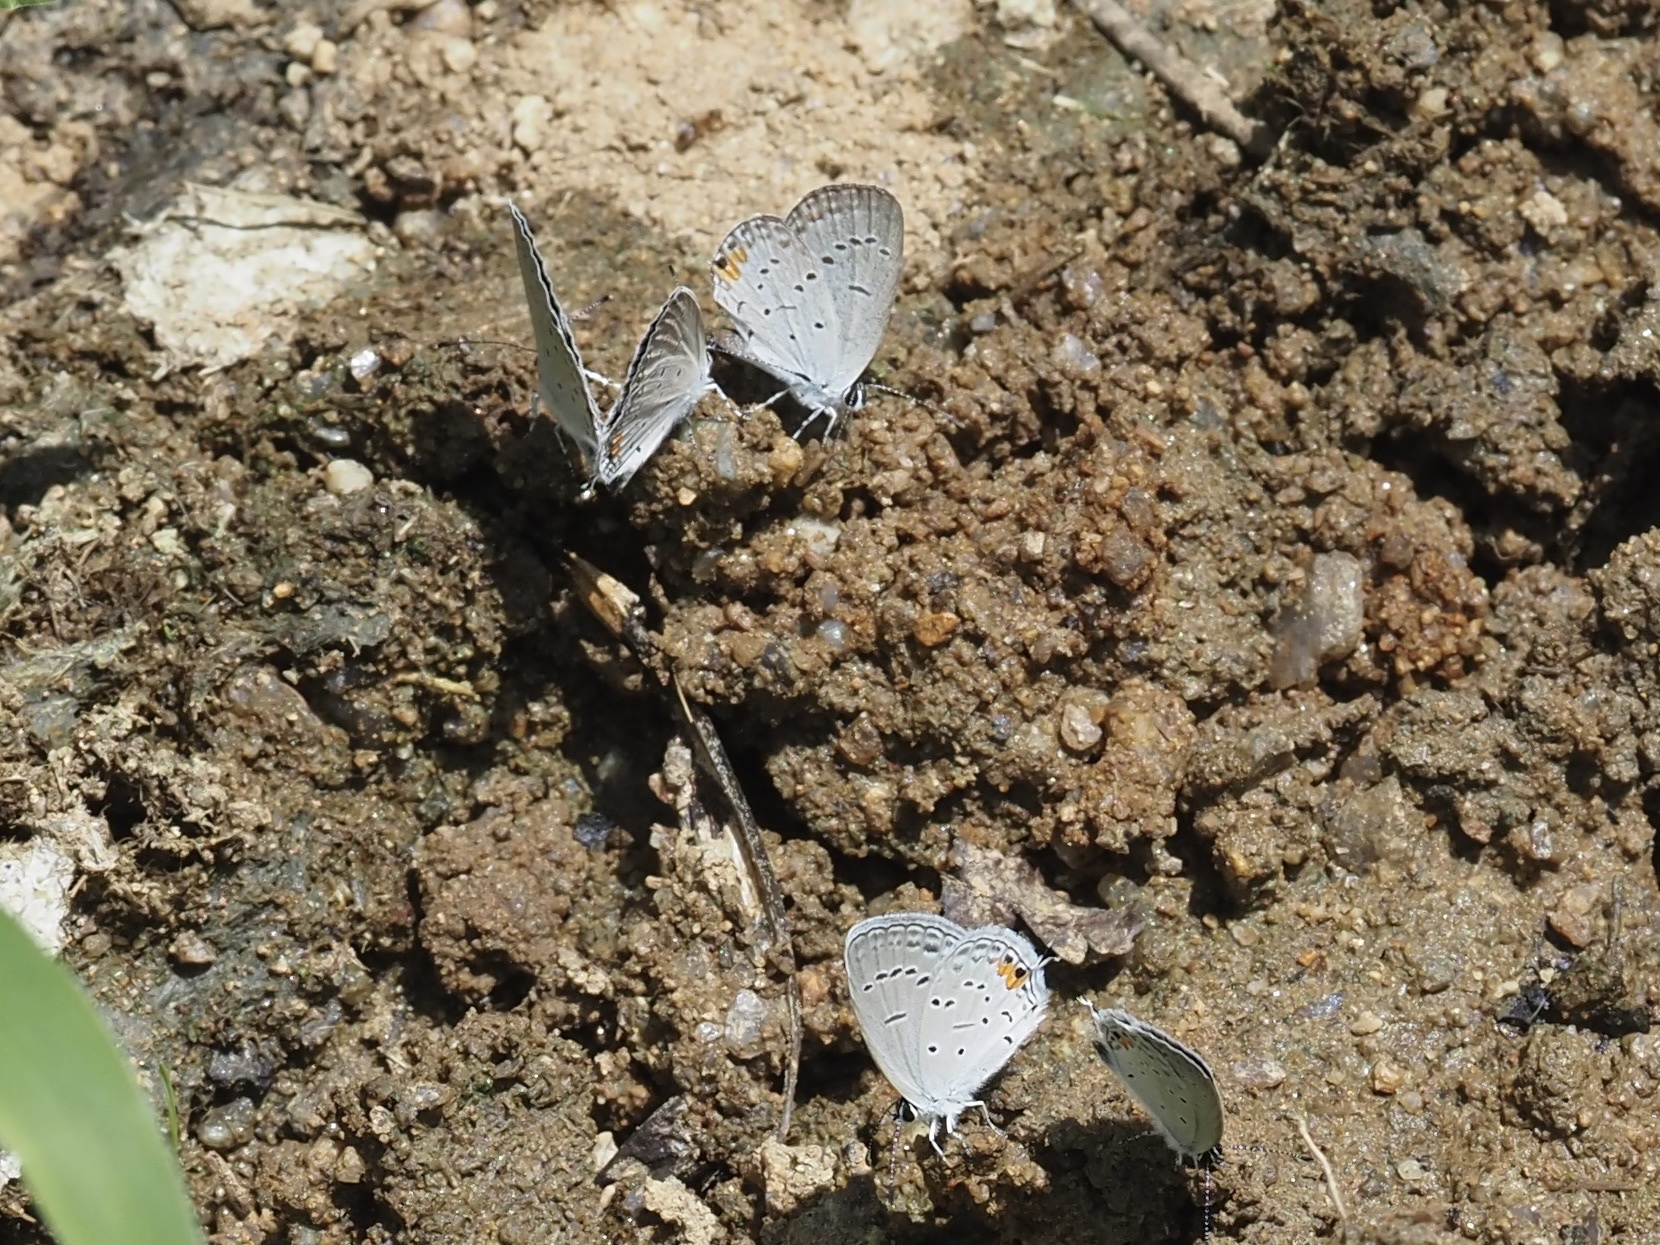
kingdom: Animalia
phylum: Arthropoda
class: Insecta
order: Lepidoptera
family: Lycaenidae
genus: Elkalyce
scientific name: Elkalyce comyntas
